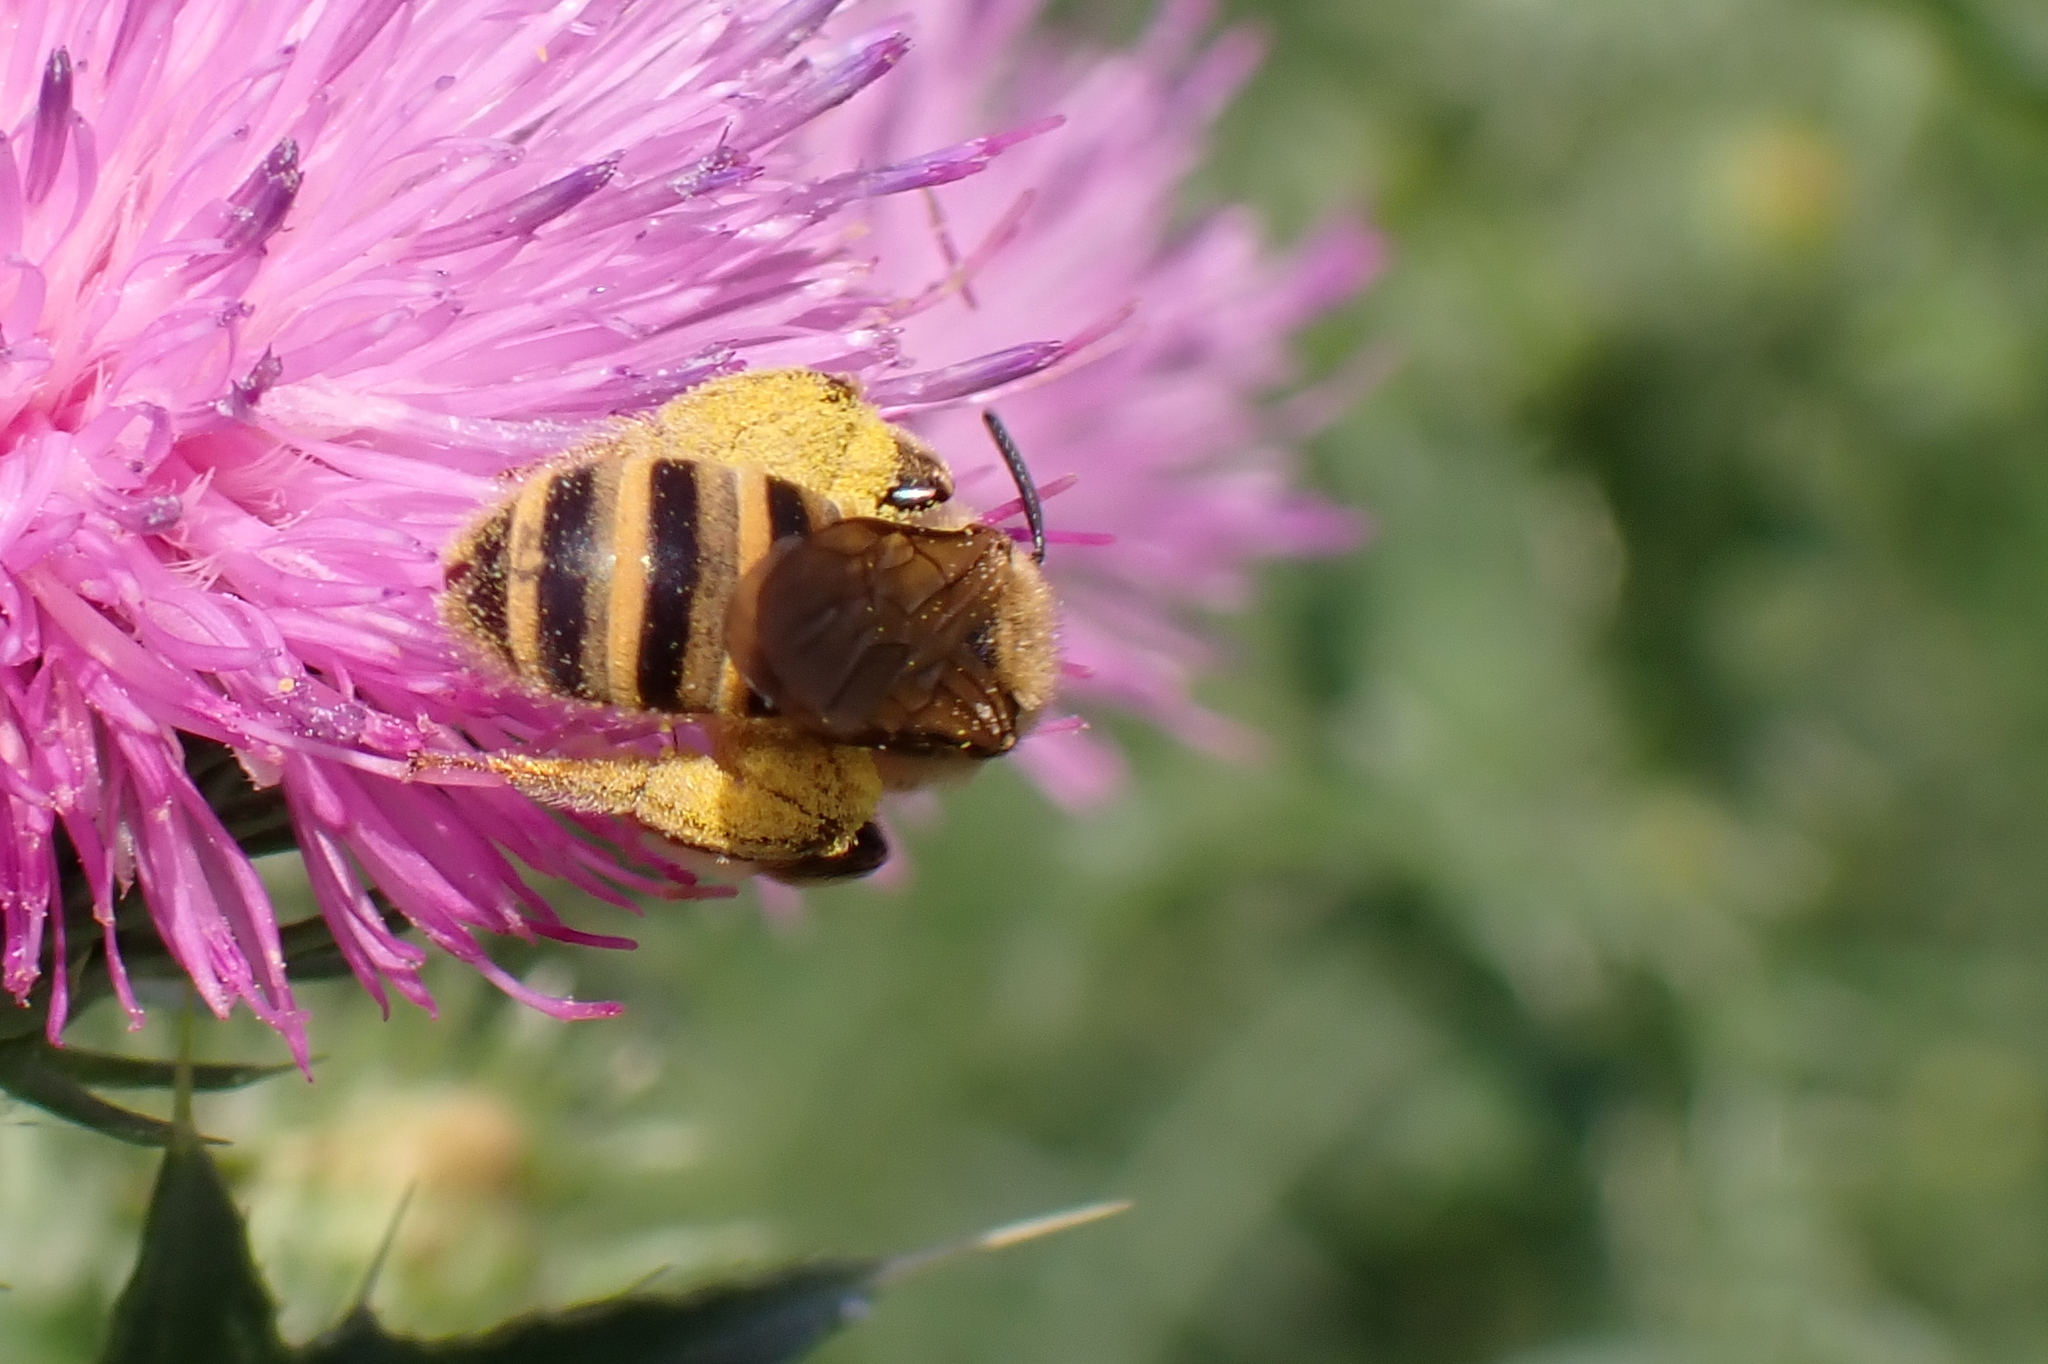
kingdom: Animalia
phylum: Arthropoda
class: Insecta
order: Hymenoptera
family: Halictidae
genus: Halictus
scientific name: Halictus scabiosae
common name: Great banded furrow bee
